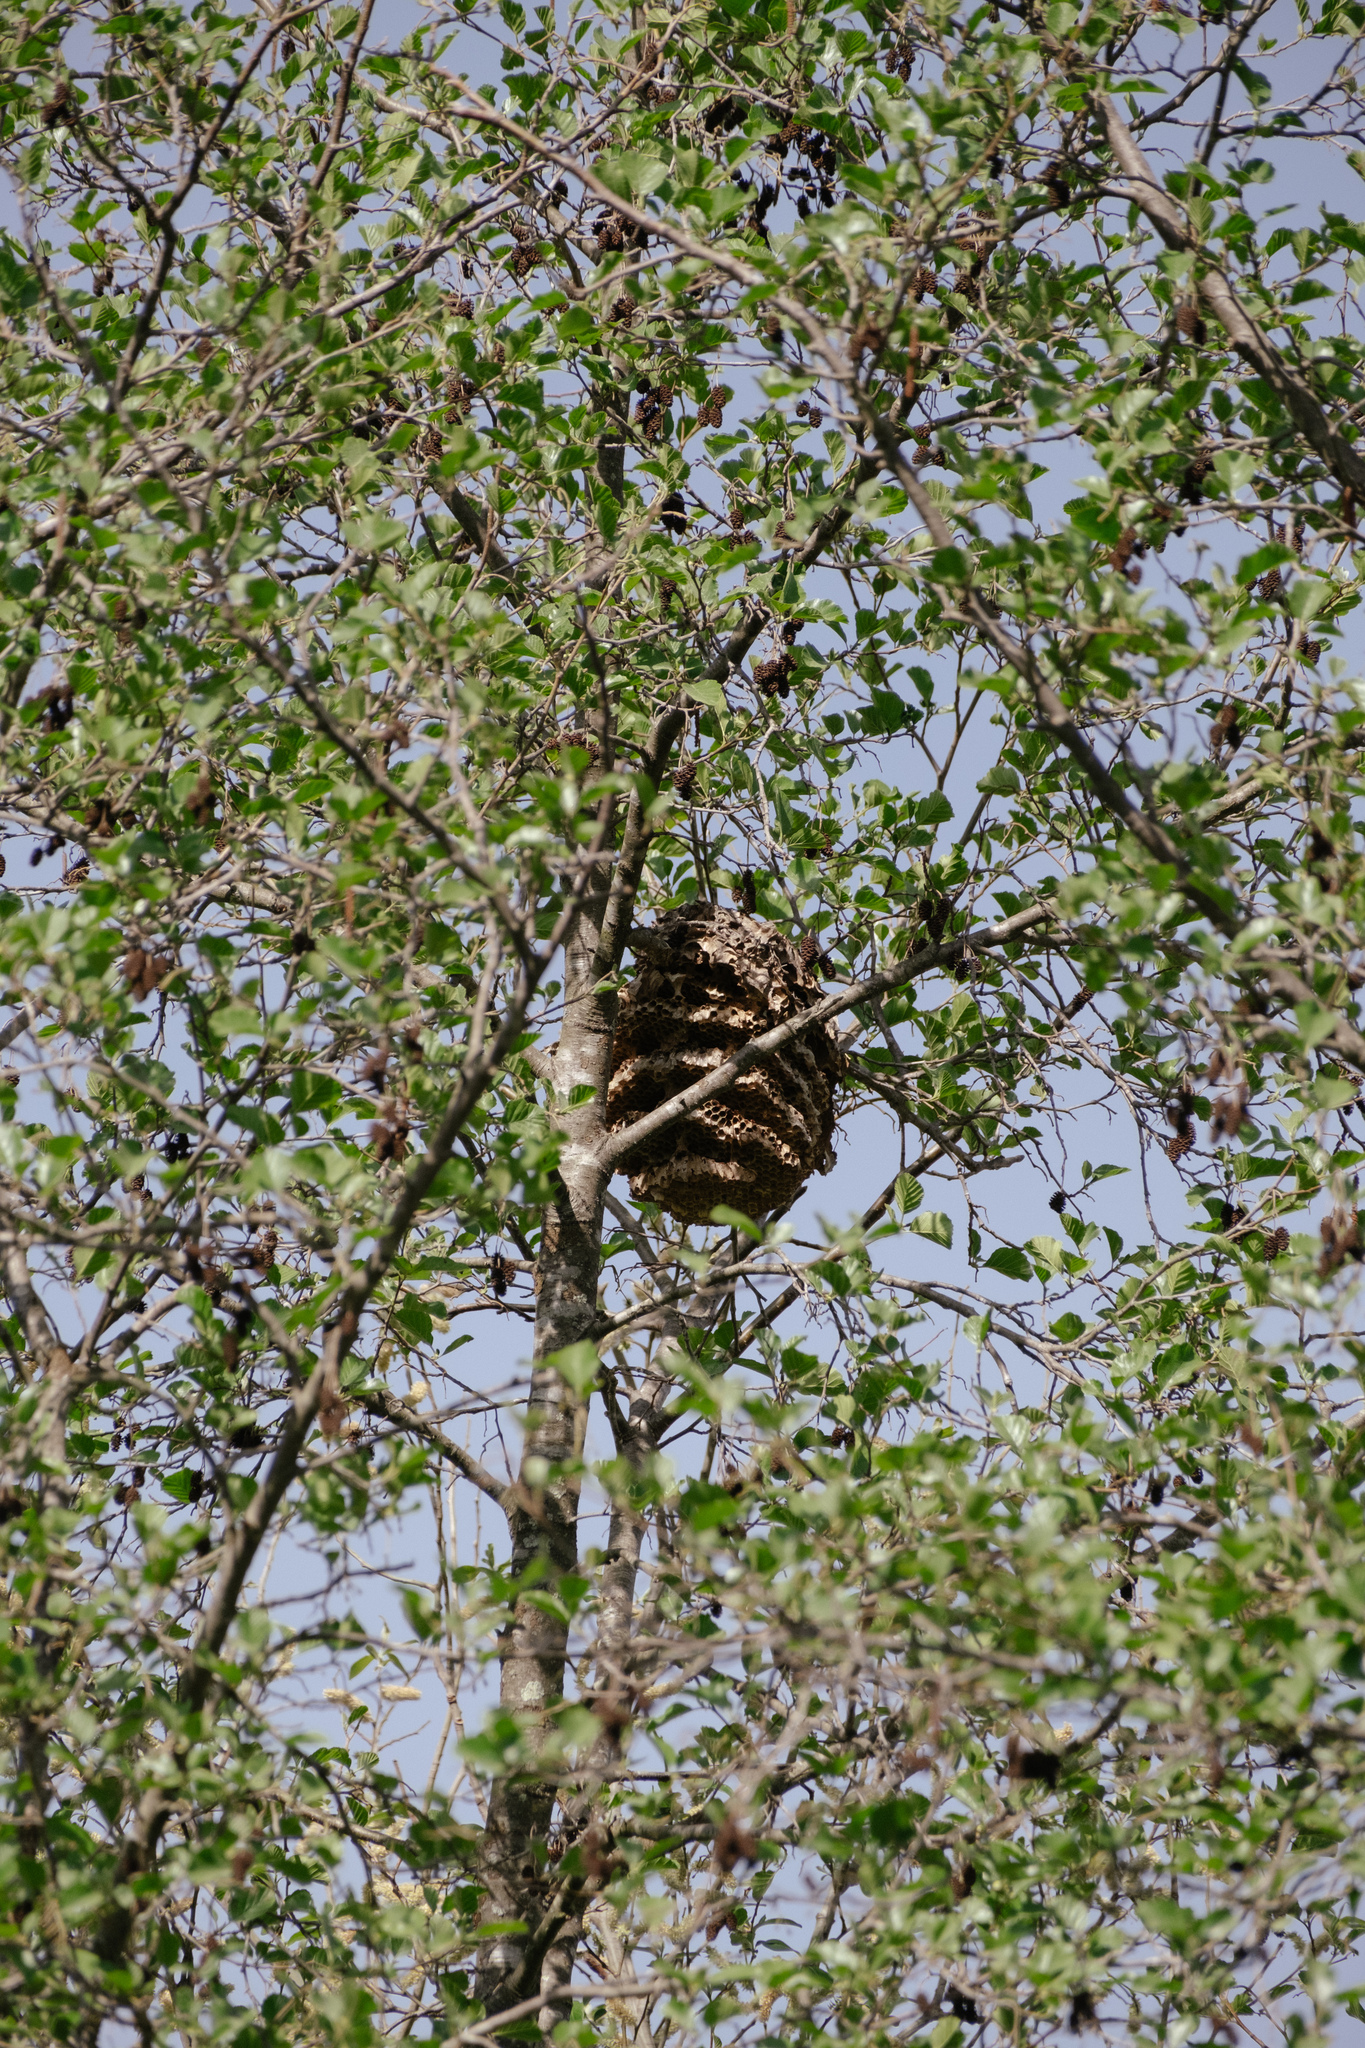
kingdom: Animalia
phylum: Arthropoda
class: Insecta
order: Hymenoptera
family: Vespidae
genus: Vespa
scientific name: Vespa velutina
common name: Asian hornet
